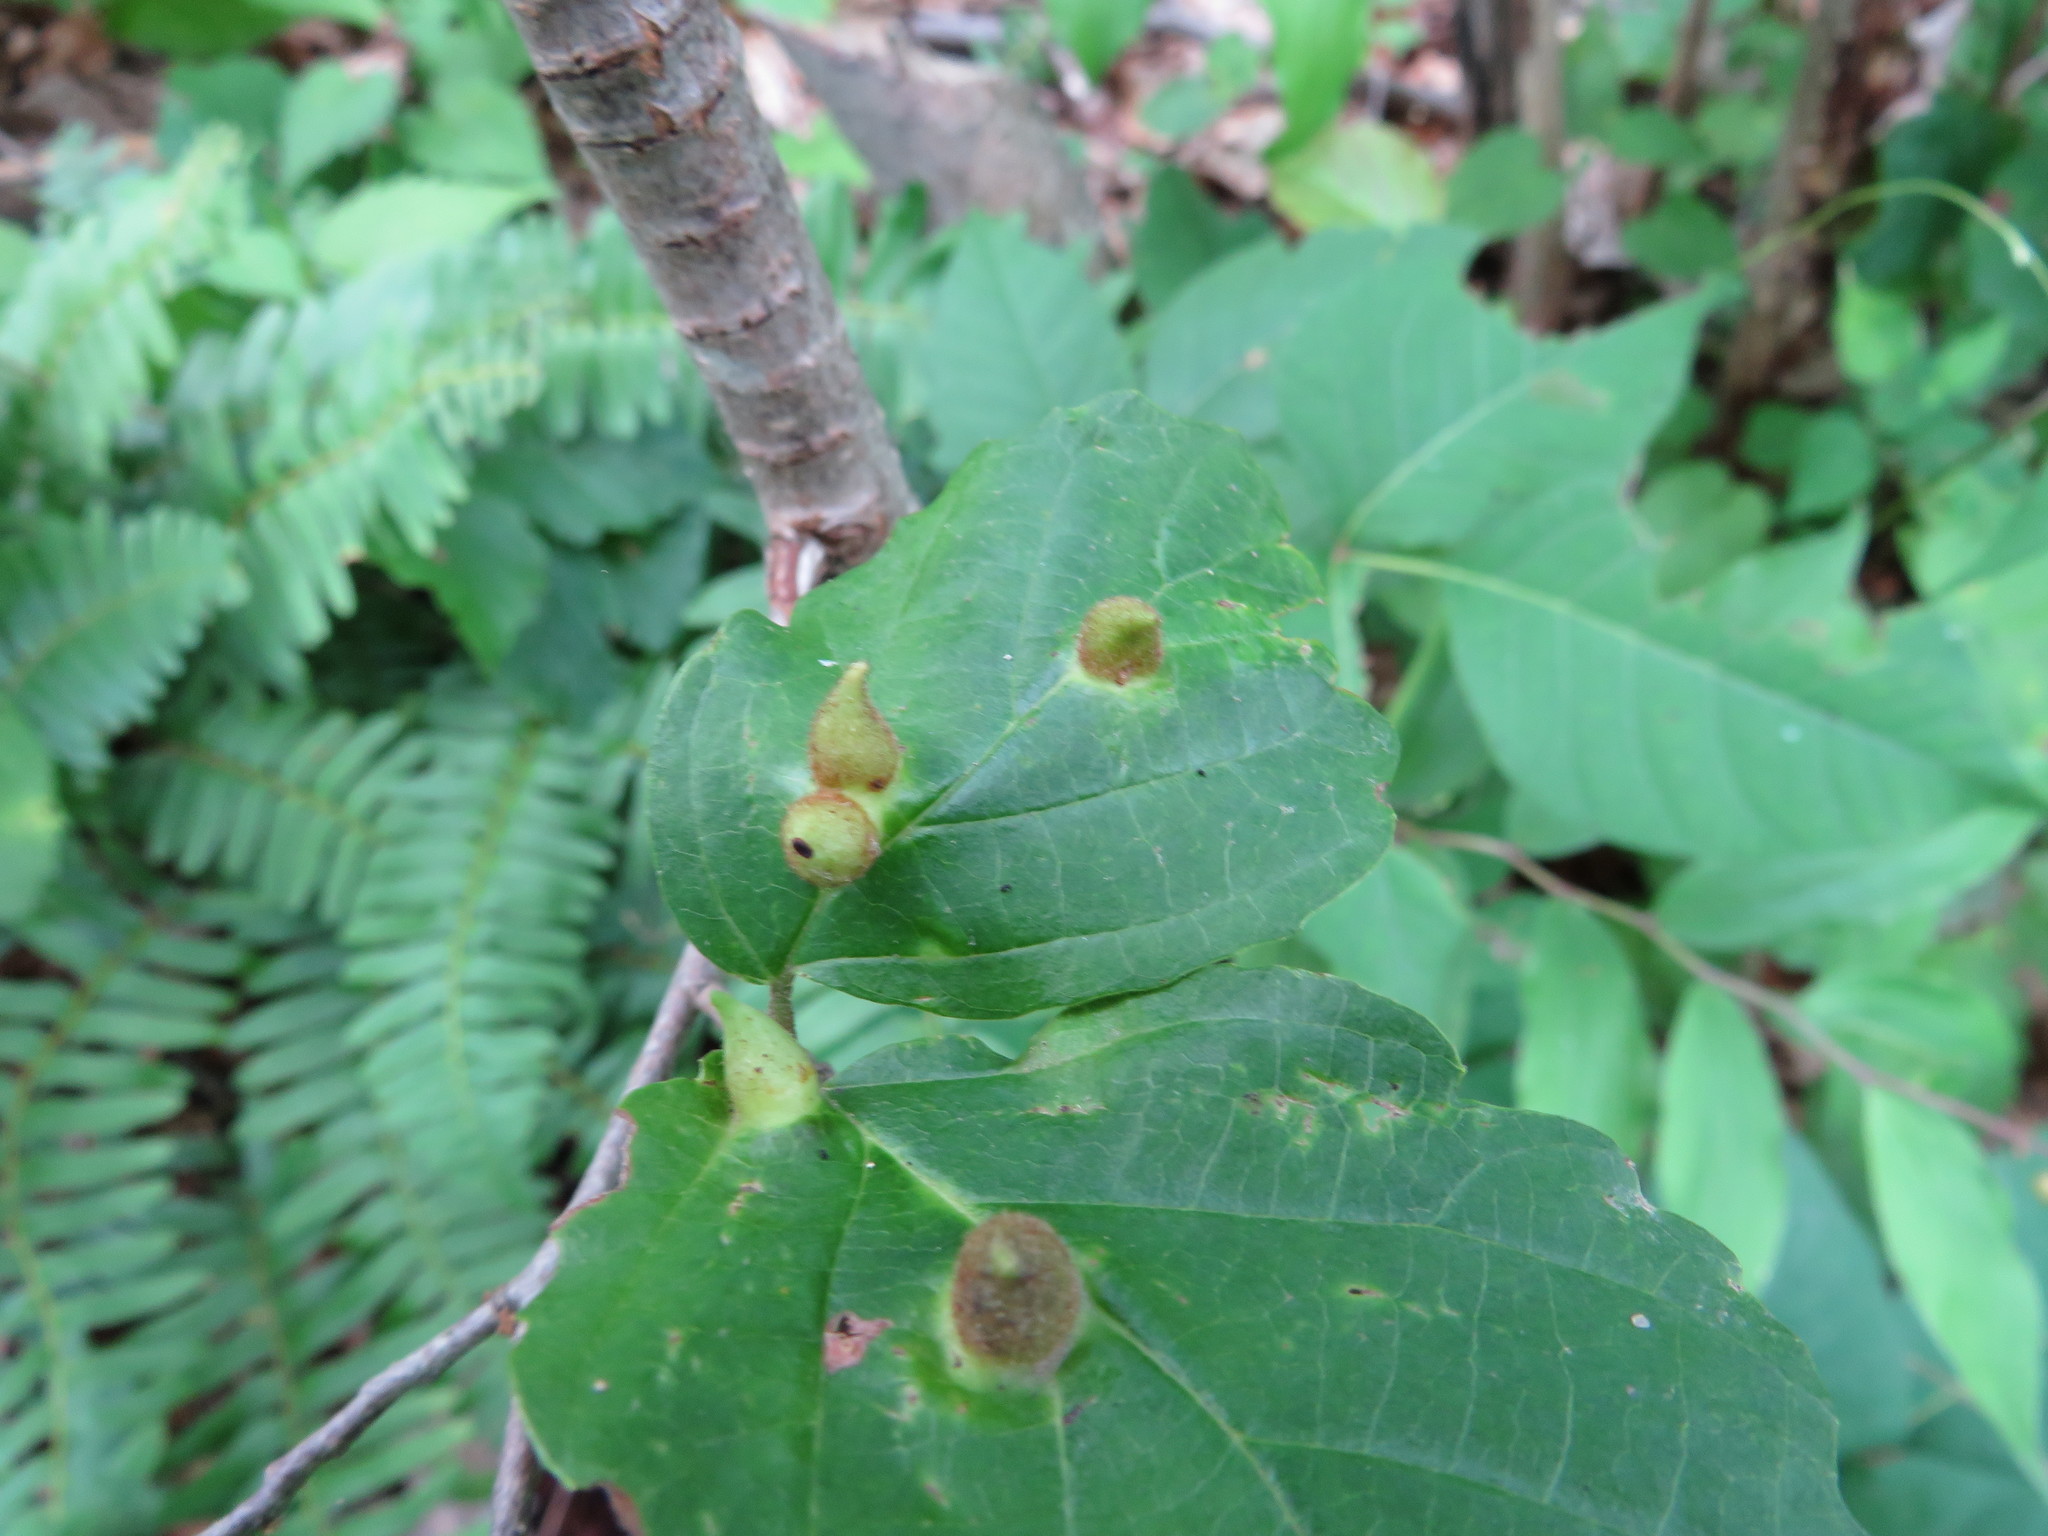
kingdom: Animalia
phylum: Arthropoda
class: Insecta
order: Hemiptera
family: Aphididae
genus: Hormaphis
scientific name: Hormaphis hamamelidis
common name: Witch-hazel cone gall aphid
